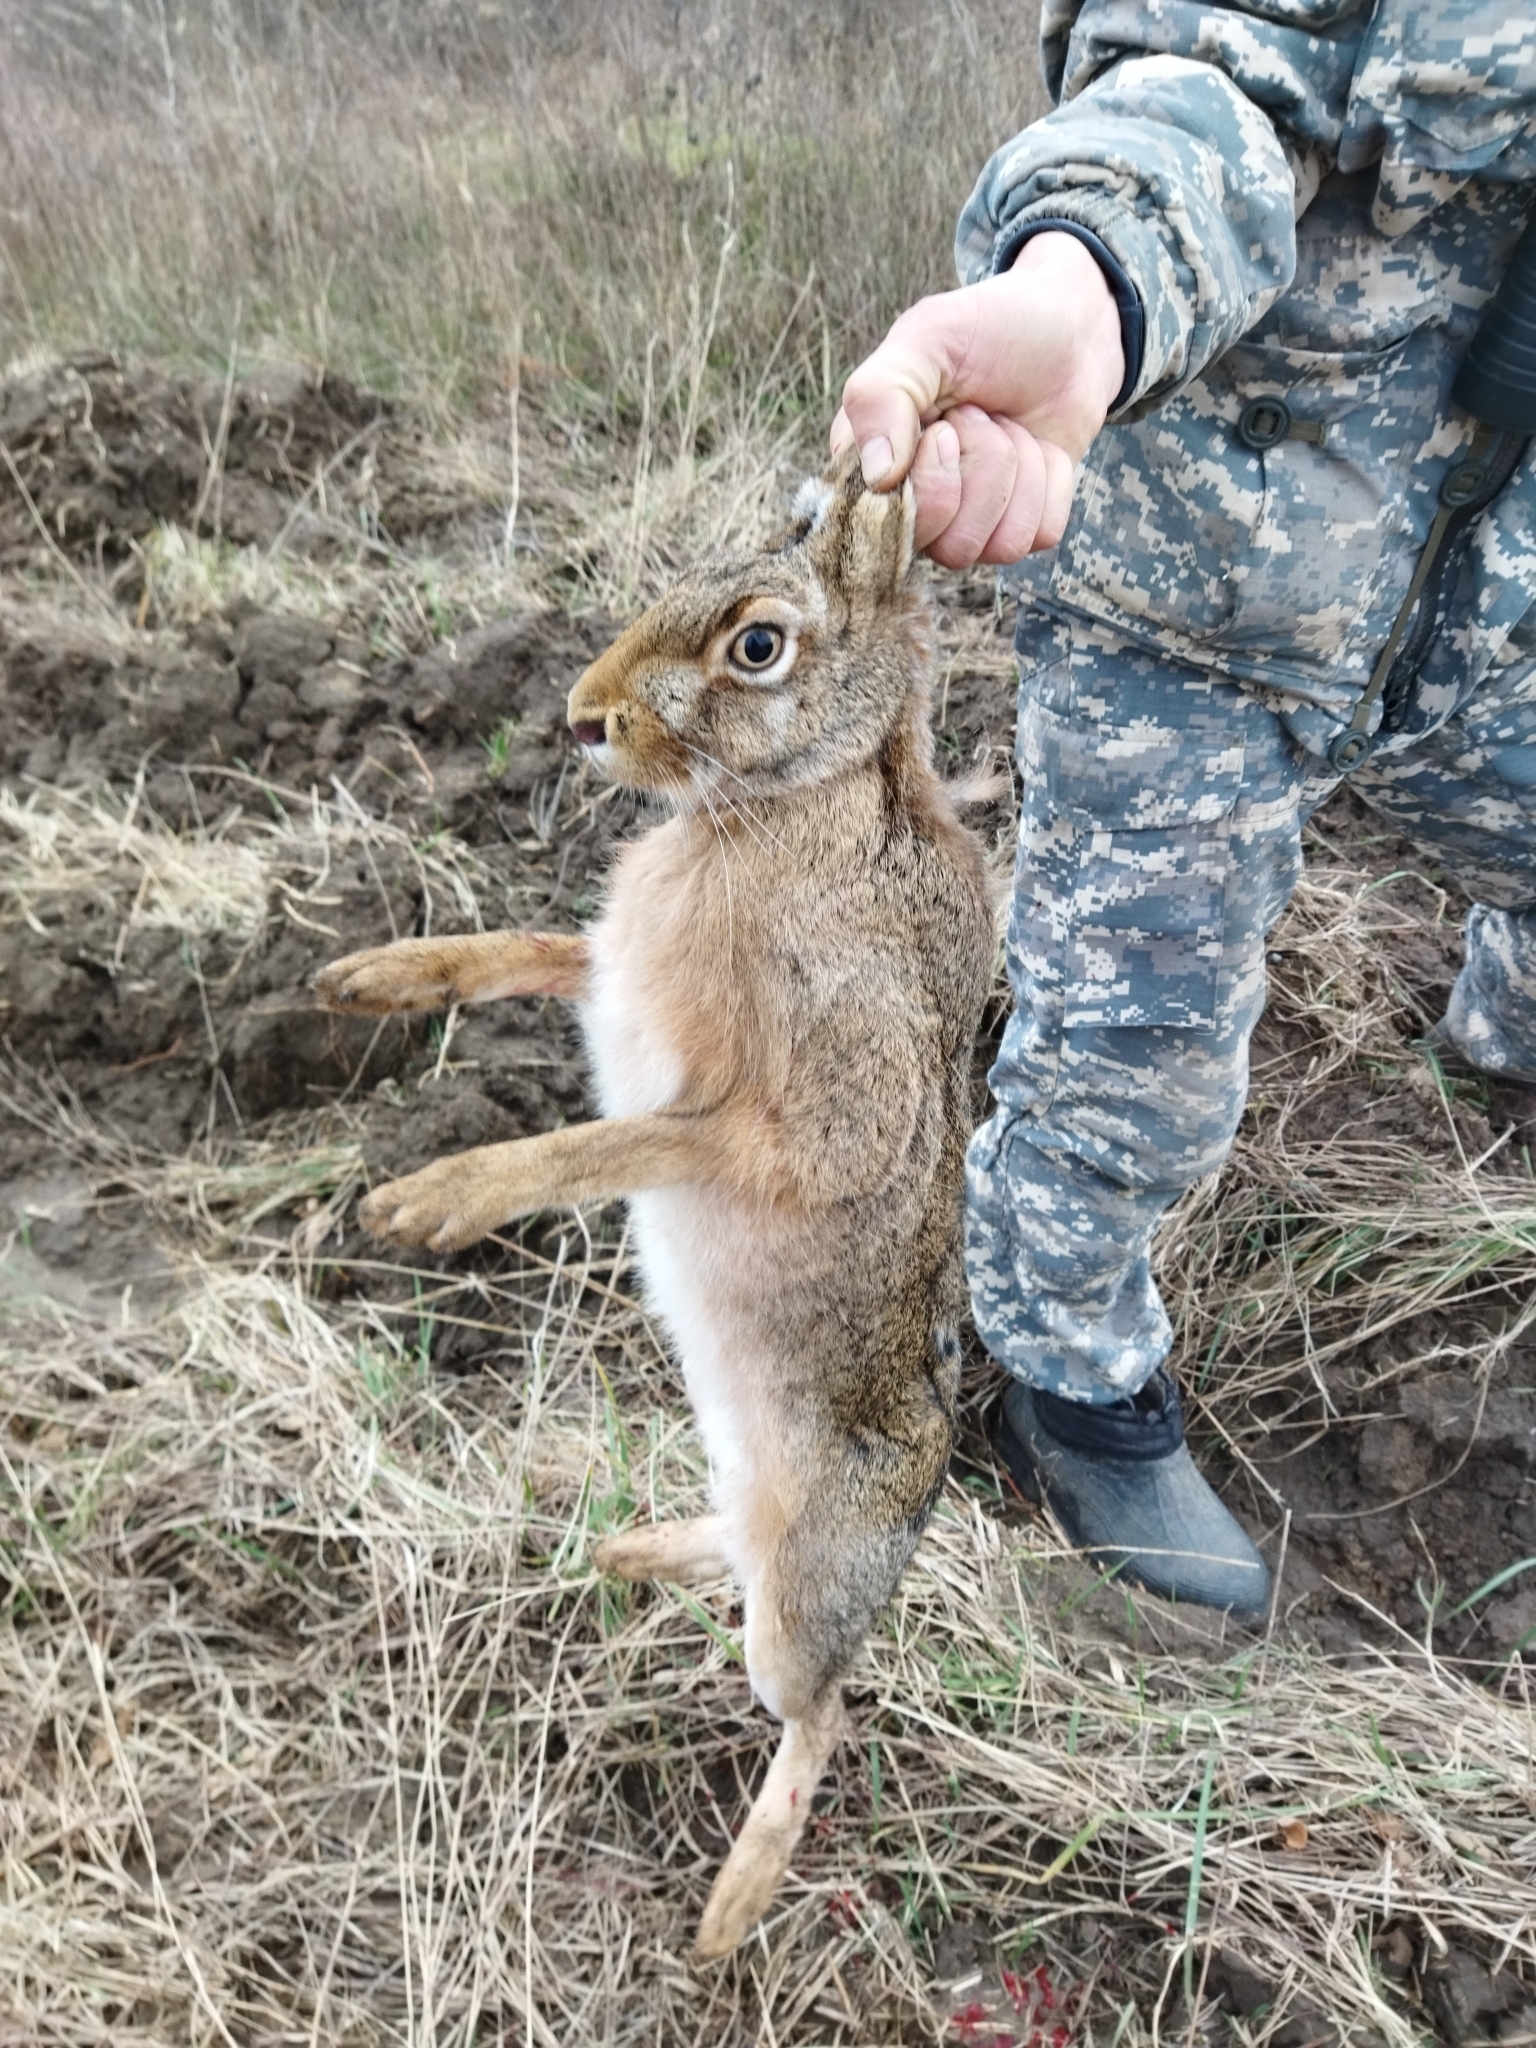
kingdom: Animalia
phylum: Chordata
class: Mammalia
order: Lagomorpha
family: Leporidae
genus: Lepus
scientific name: Lepus europaeus
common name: European hare
